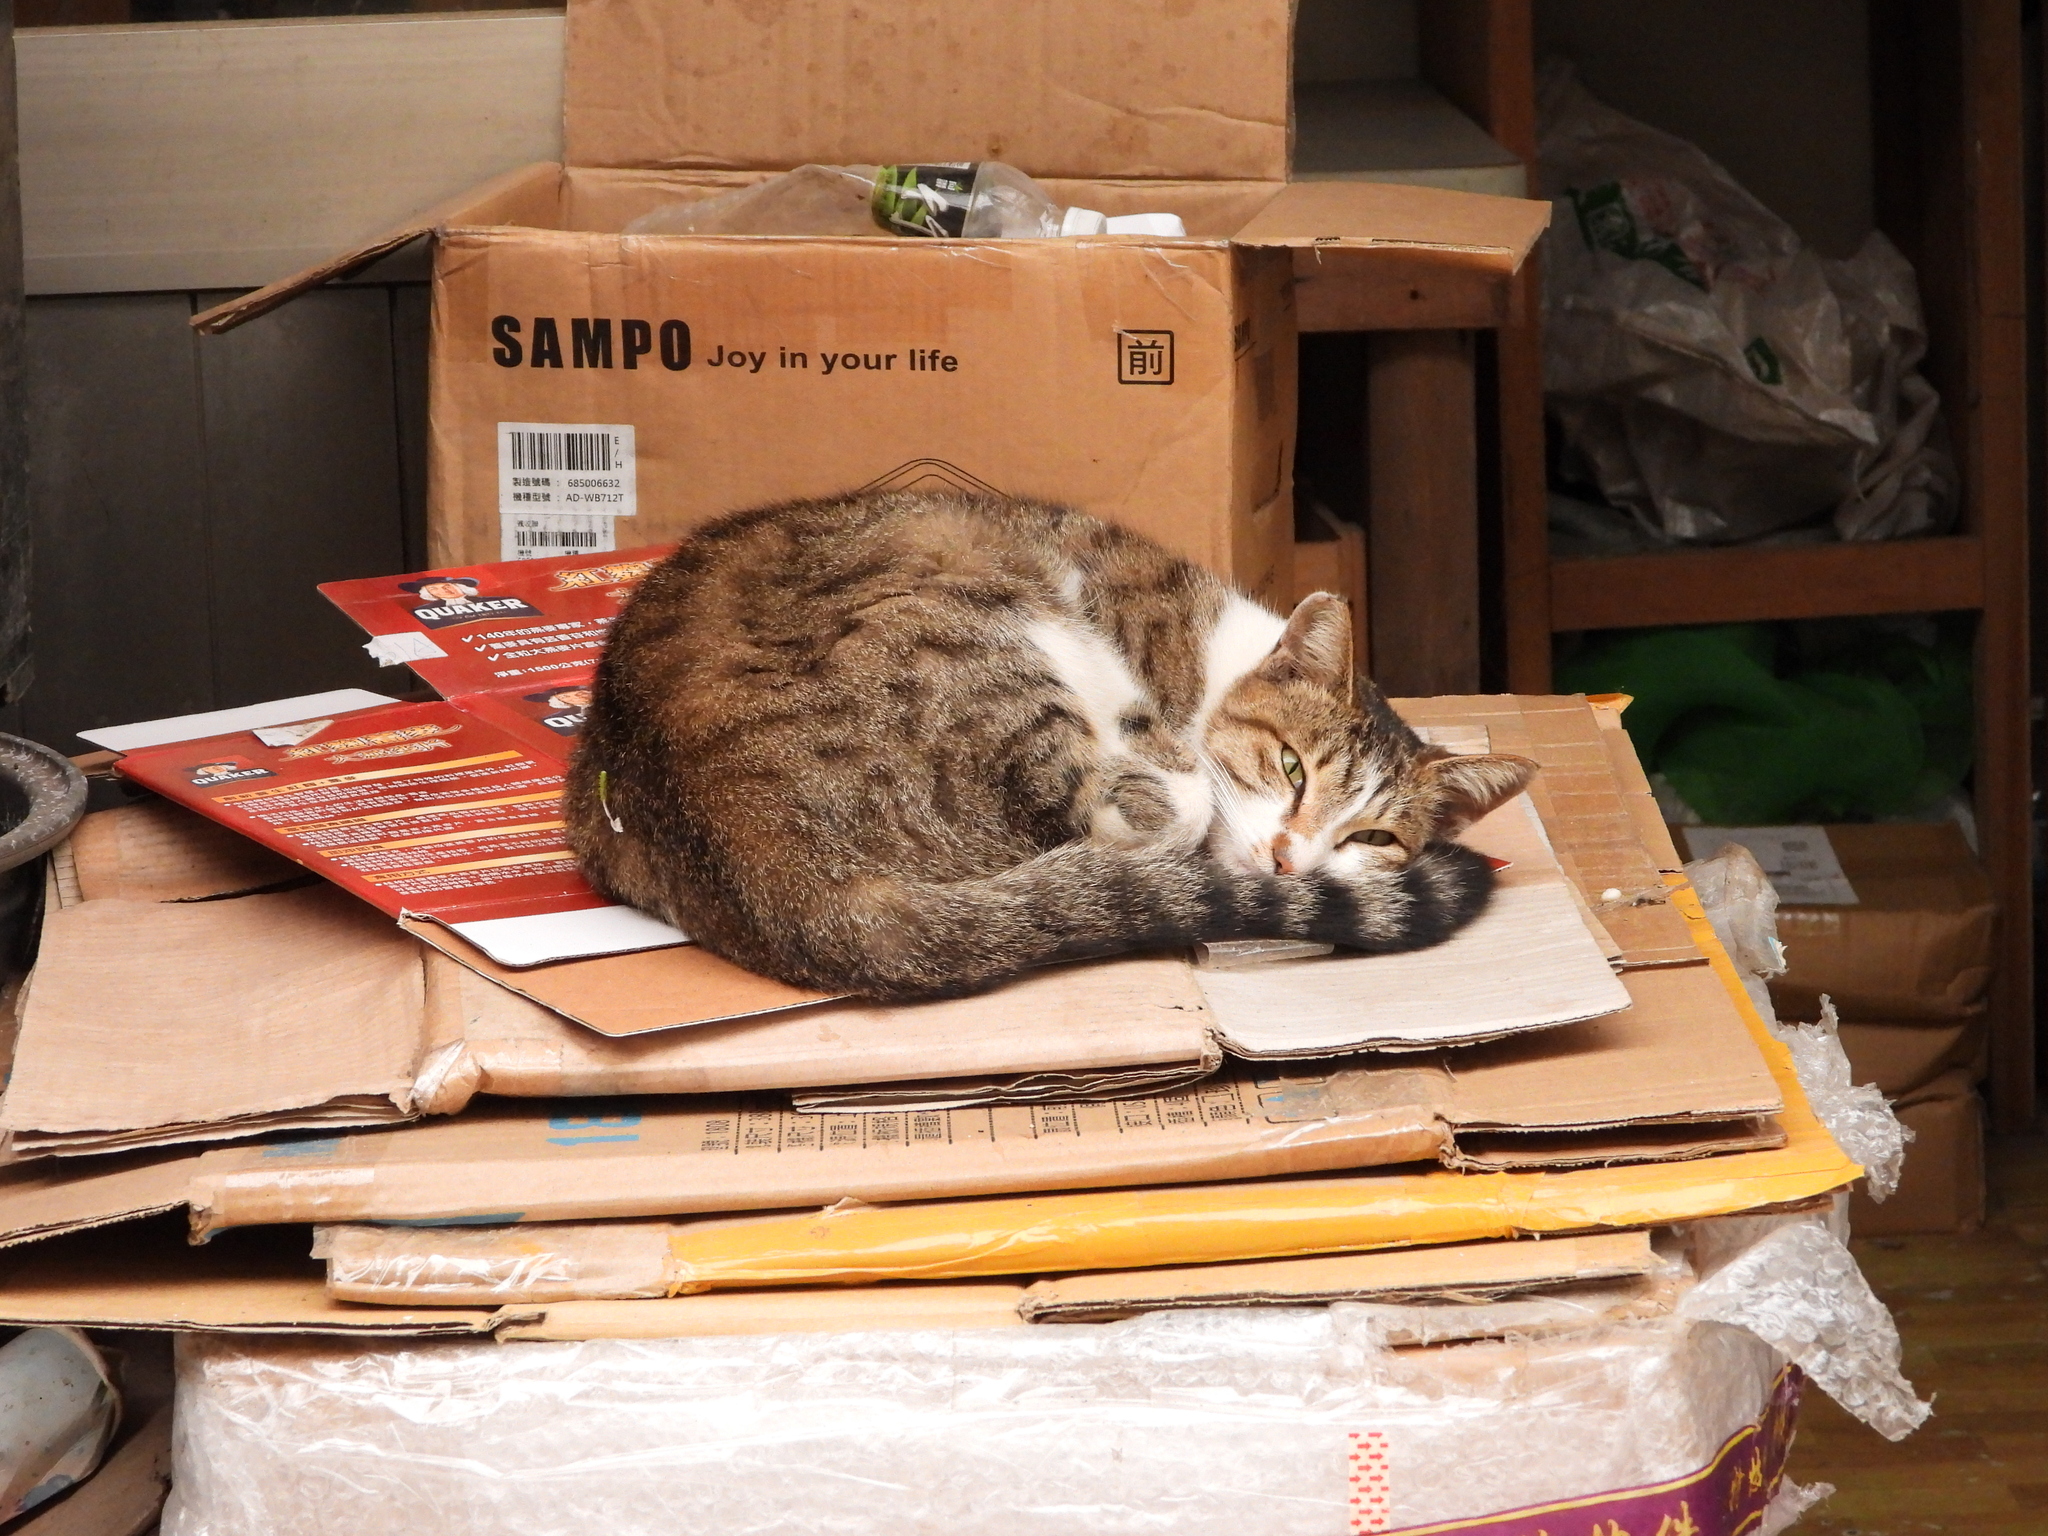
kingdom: Animalia
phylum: Chordata
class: Mammalia
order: Carnivora
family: Felidae
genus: Felis
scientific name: Felis catus
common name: Domestic cat
